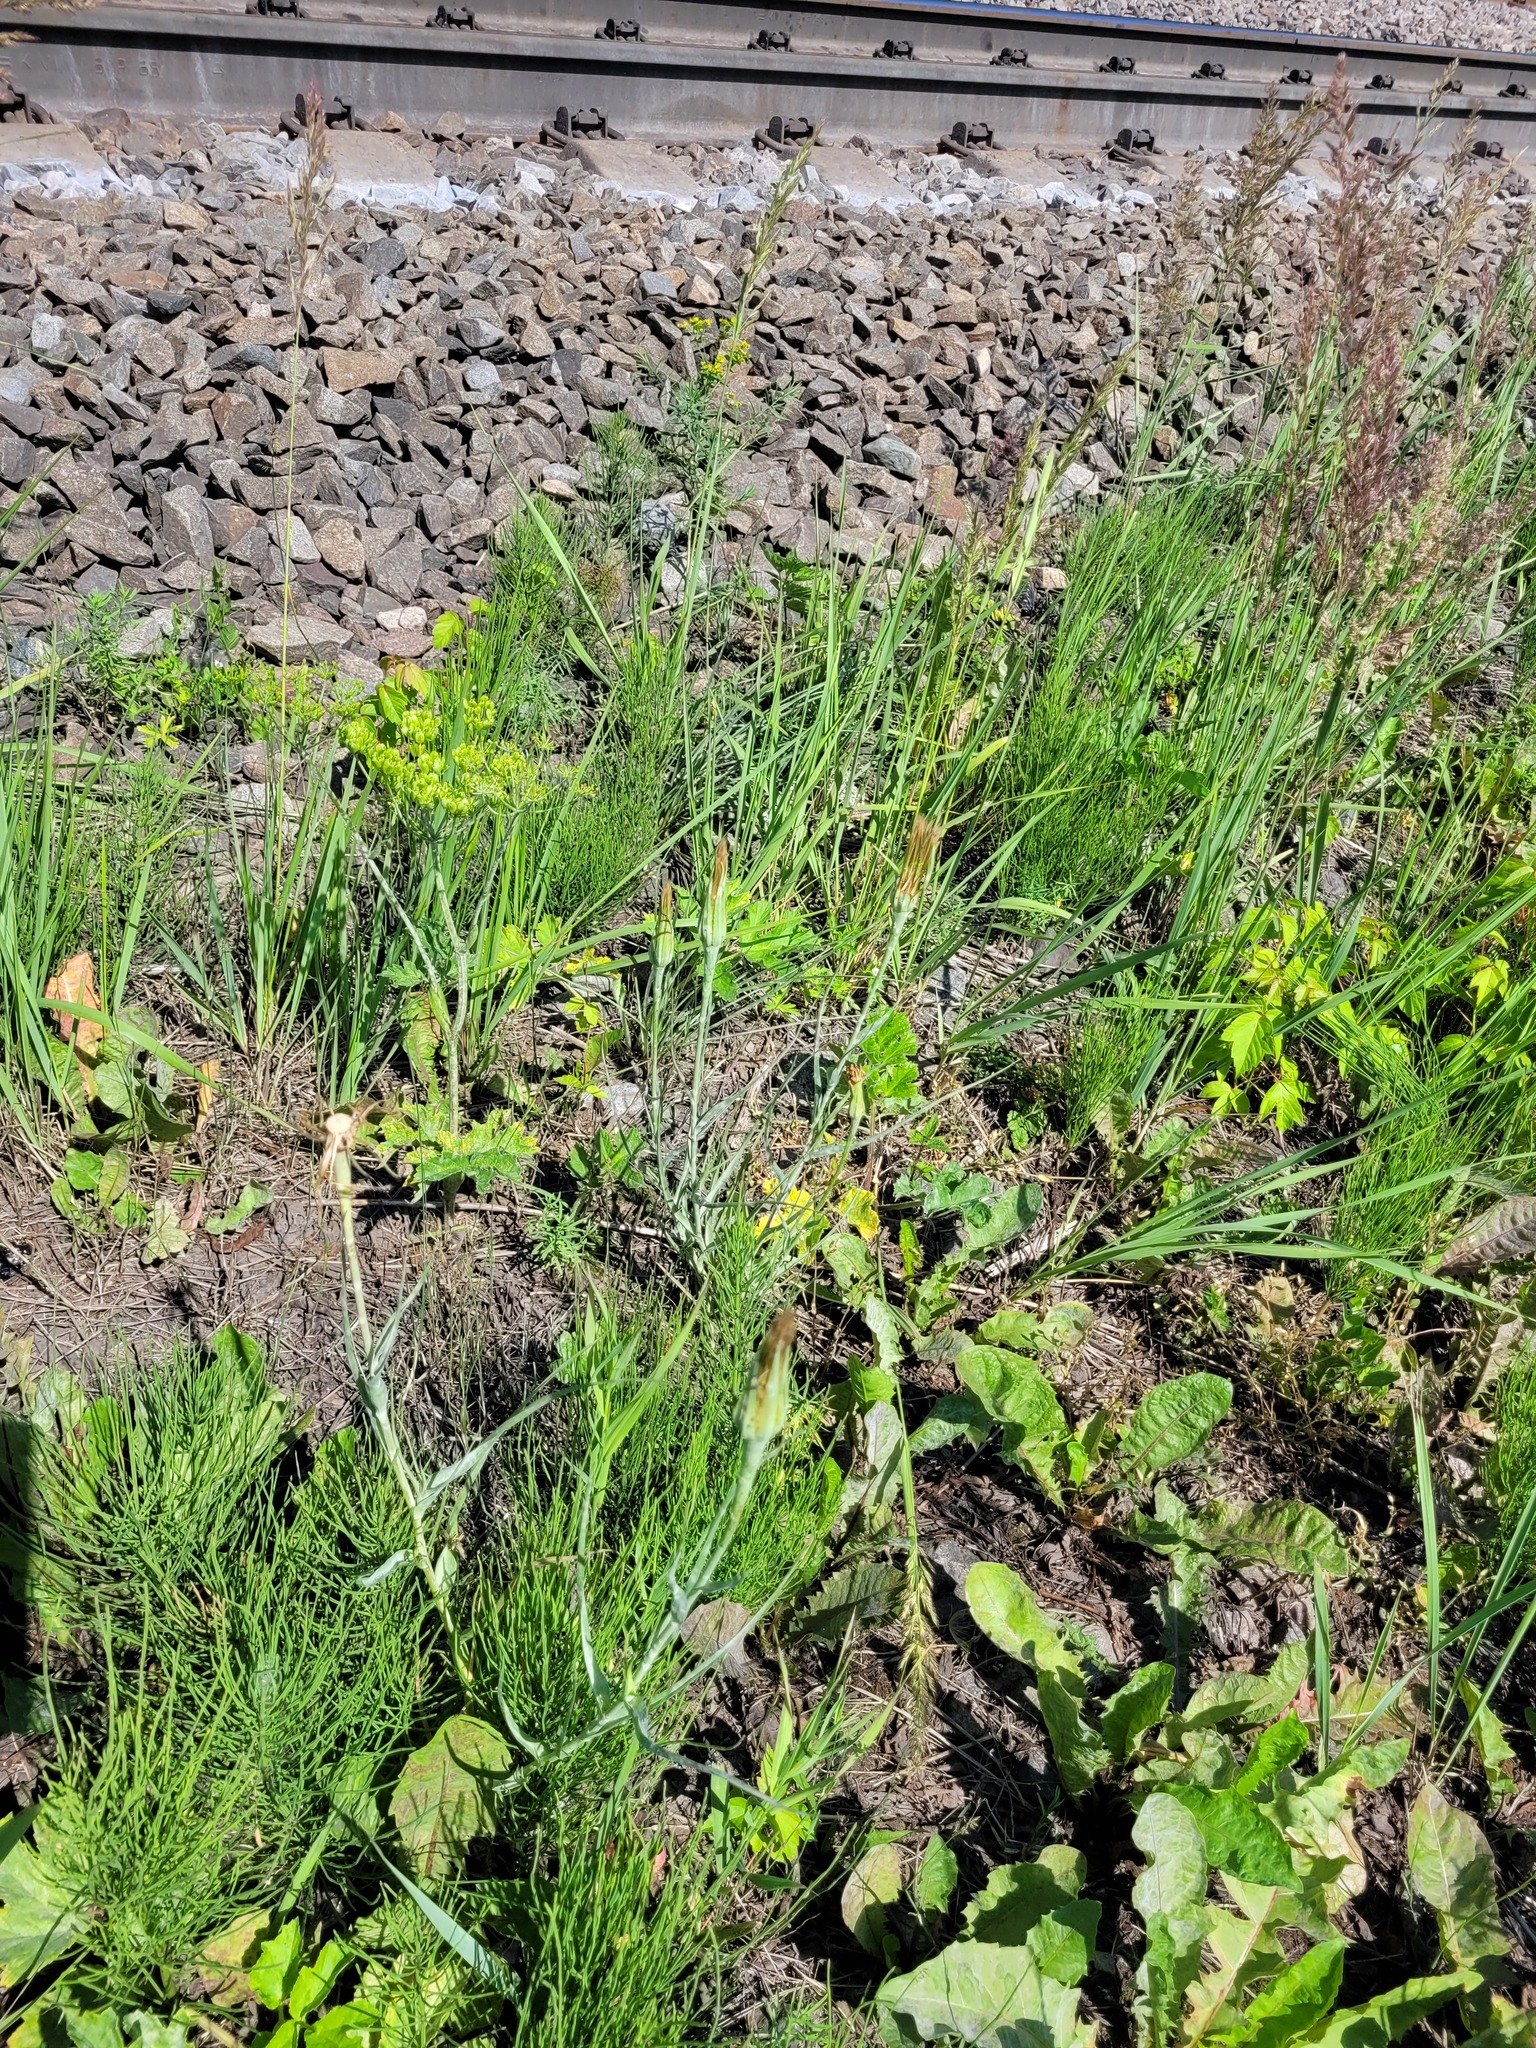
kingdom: Plantae
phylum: Tracheophyta
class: Magnoliopsida
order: Asterales
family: Asteraceae
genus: Tragopogon
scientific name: Tragopogon dubius
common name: Yellow salsify
